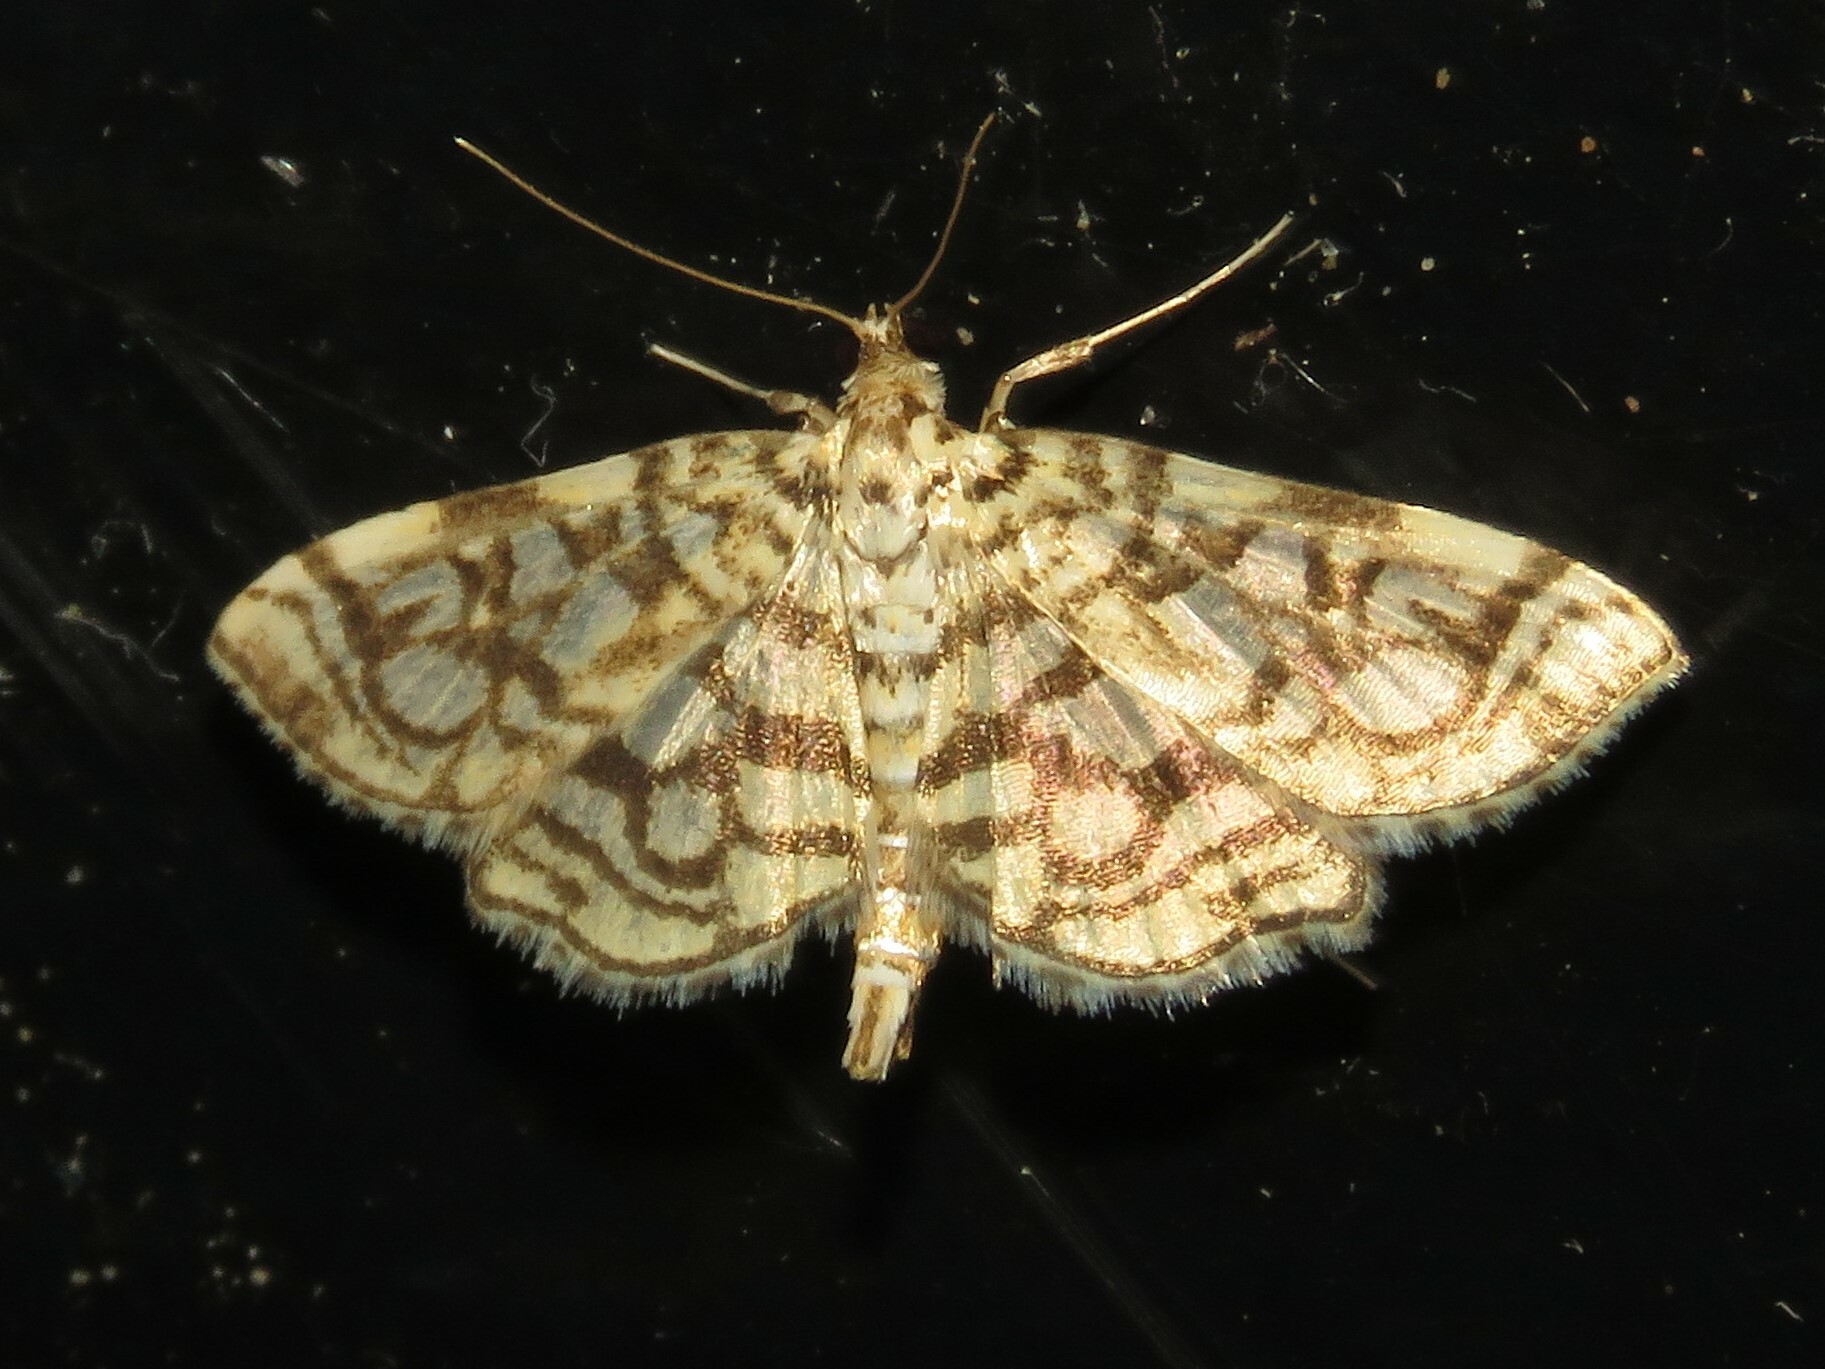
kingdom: Animalia
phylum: Arthropoda
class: Insecta
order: Lepidoptera
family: Crambidae
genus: Lygropia
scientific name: Lygropia rivulalis
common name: Bog lygropia moth
